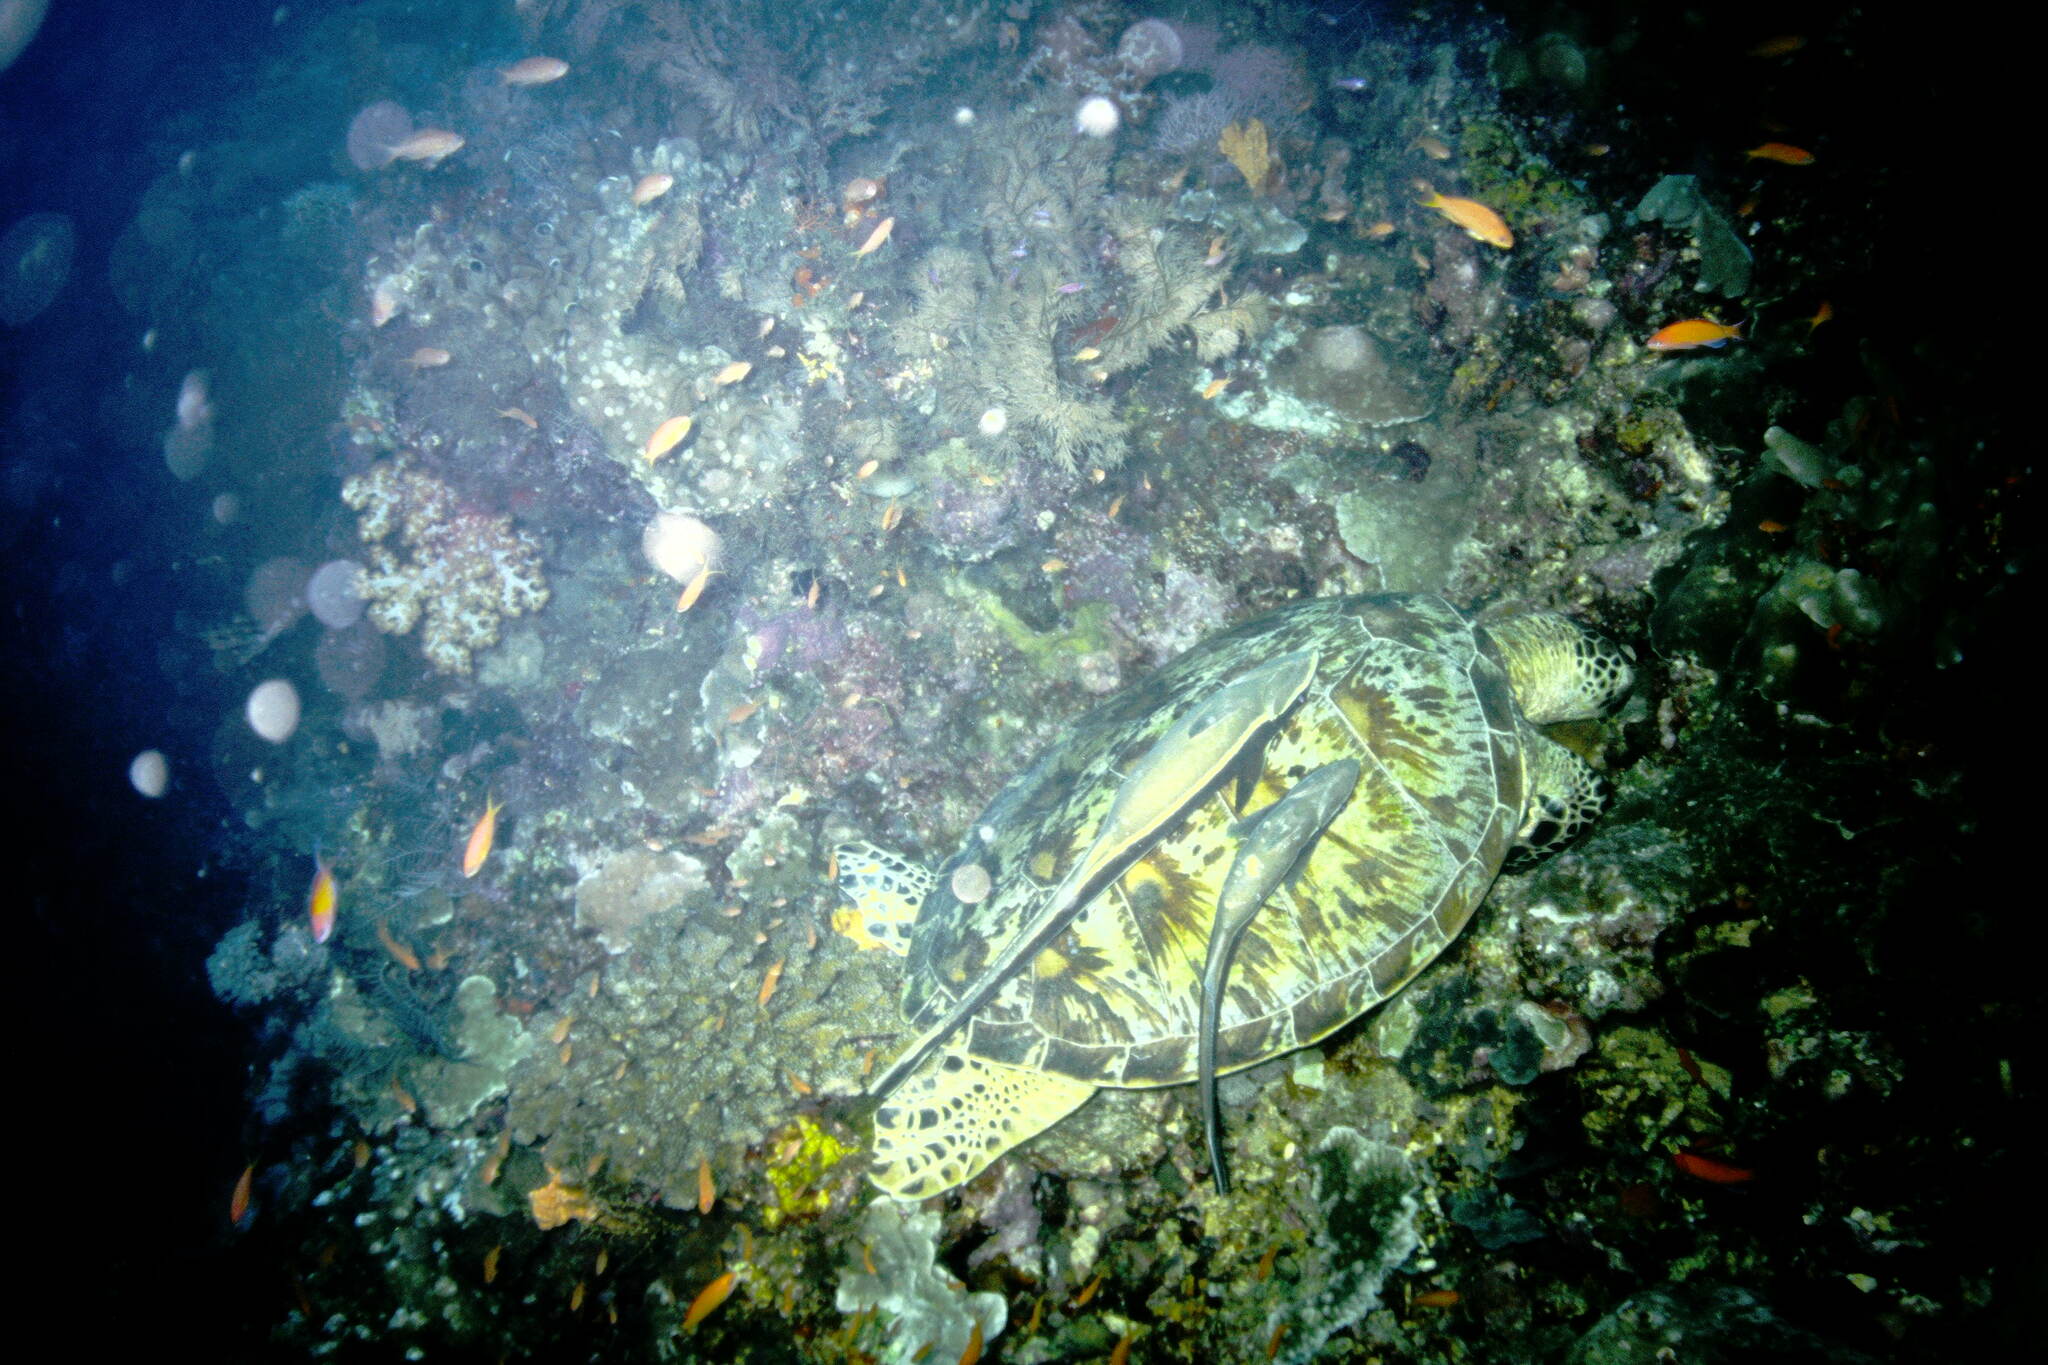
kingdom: Animalia
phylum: Chordata
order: Perciformes
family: Echeneidae
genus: Echeneis
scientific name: Echeneis naucrates
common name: Sharksucker
